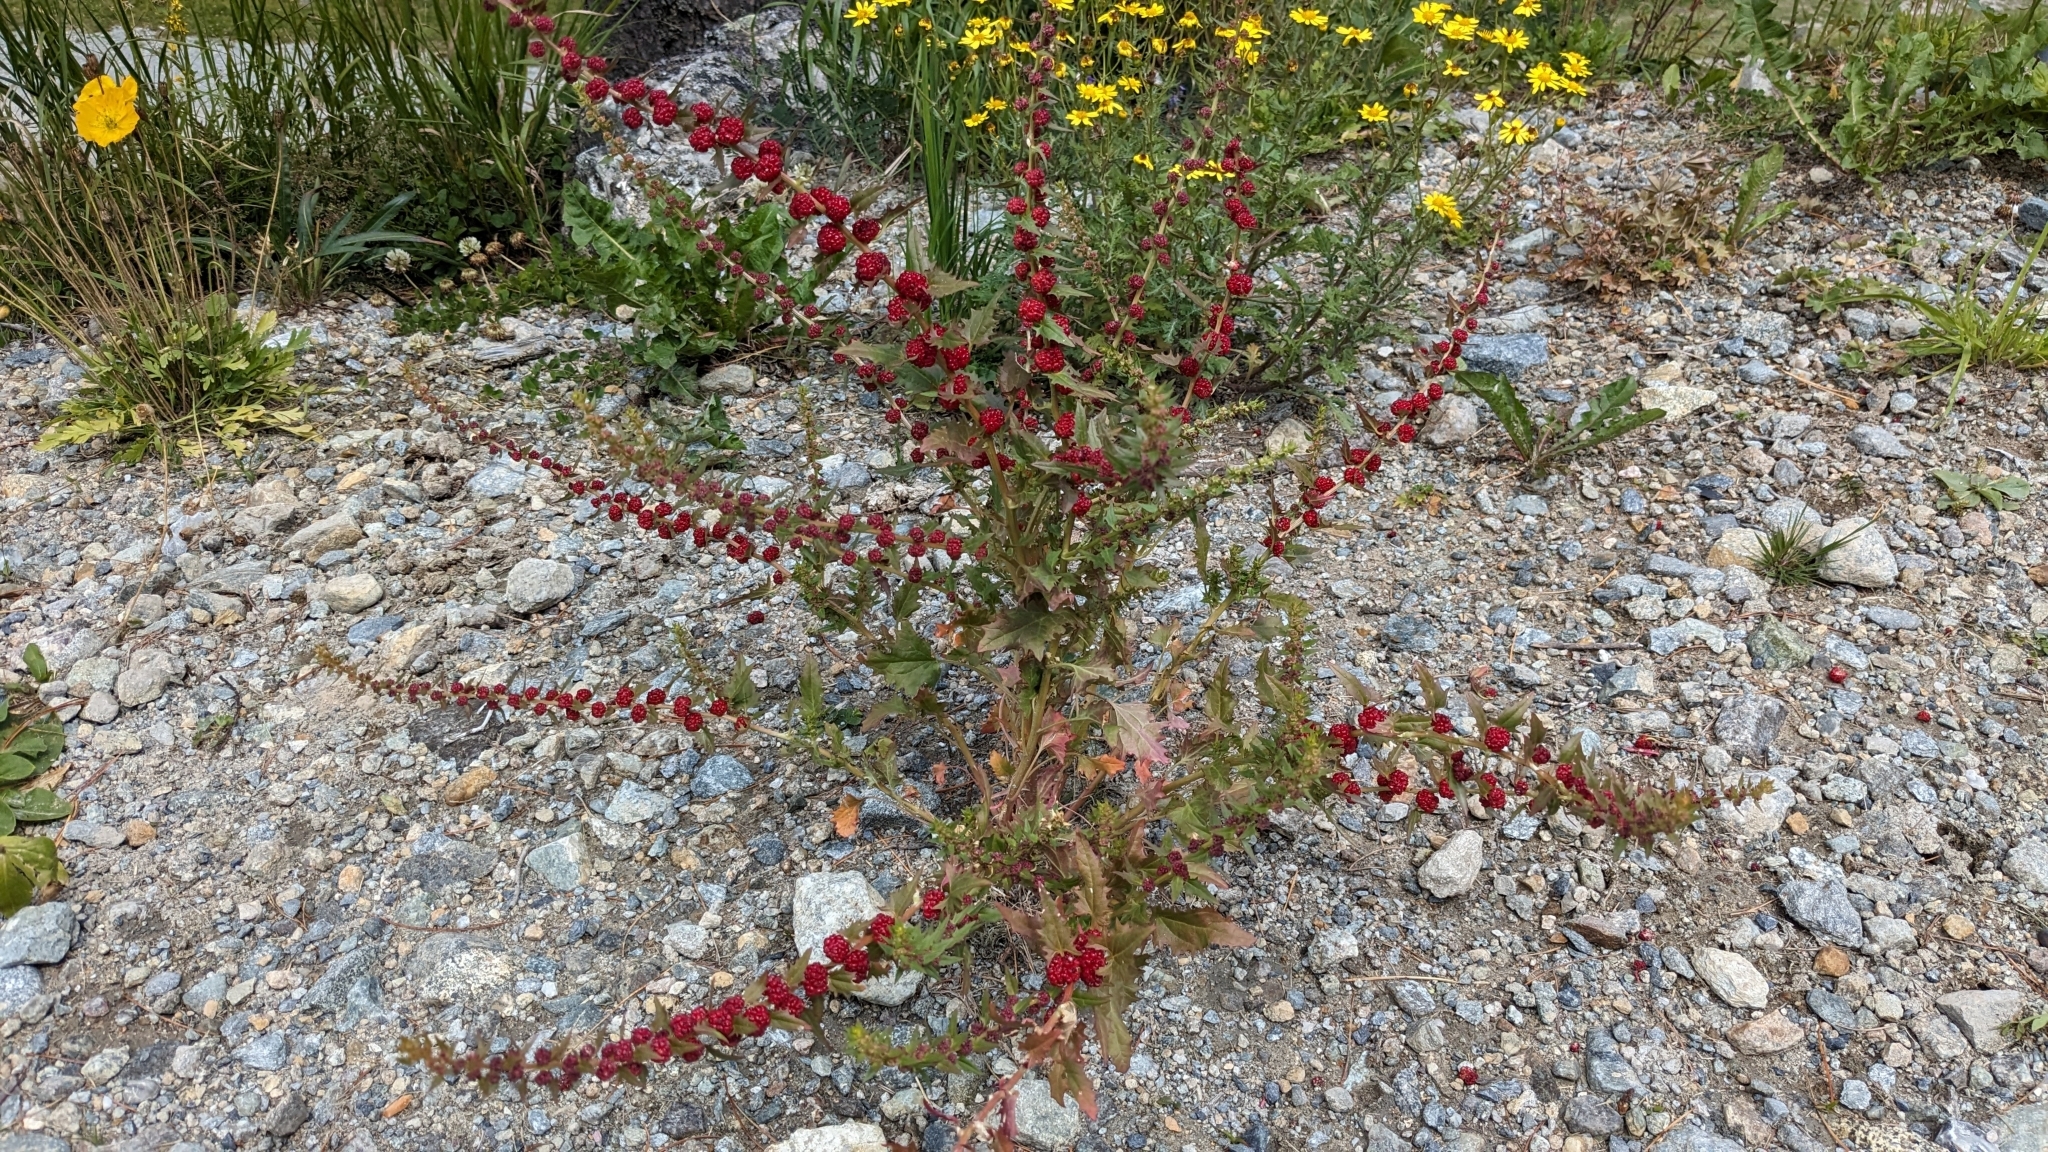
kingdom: Plantae
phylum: Tracheophyta
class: Magnoliopsida
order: Caryophyllales
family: Amaranthaceae
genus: Blitum
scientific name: Blitum virgatum
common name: Strawberry goosefoot
